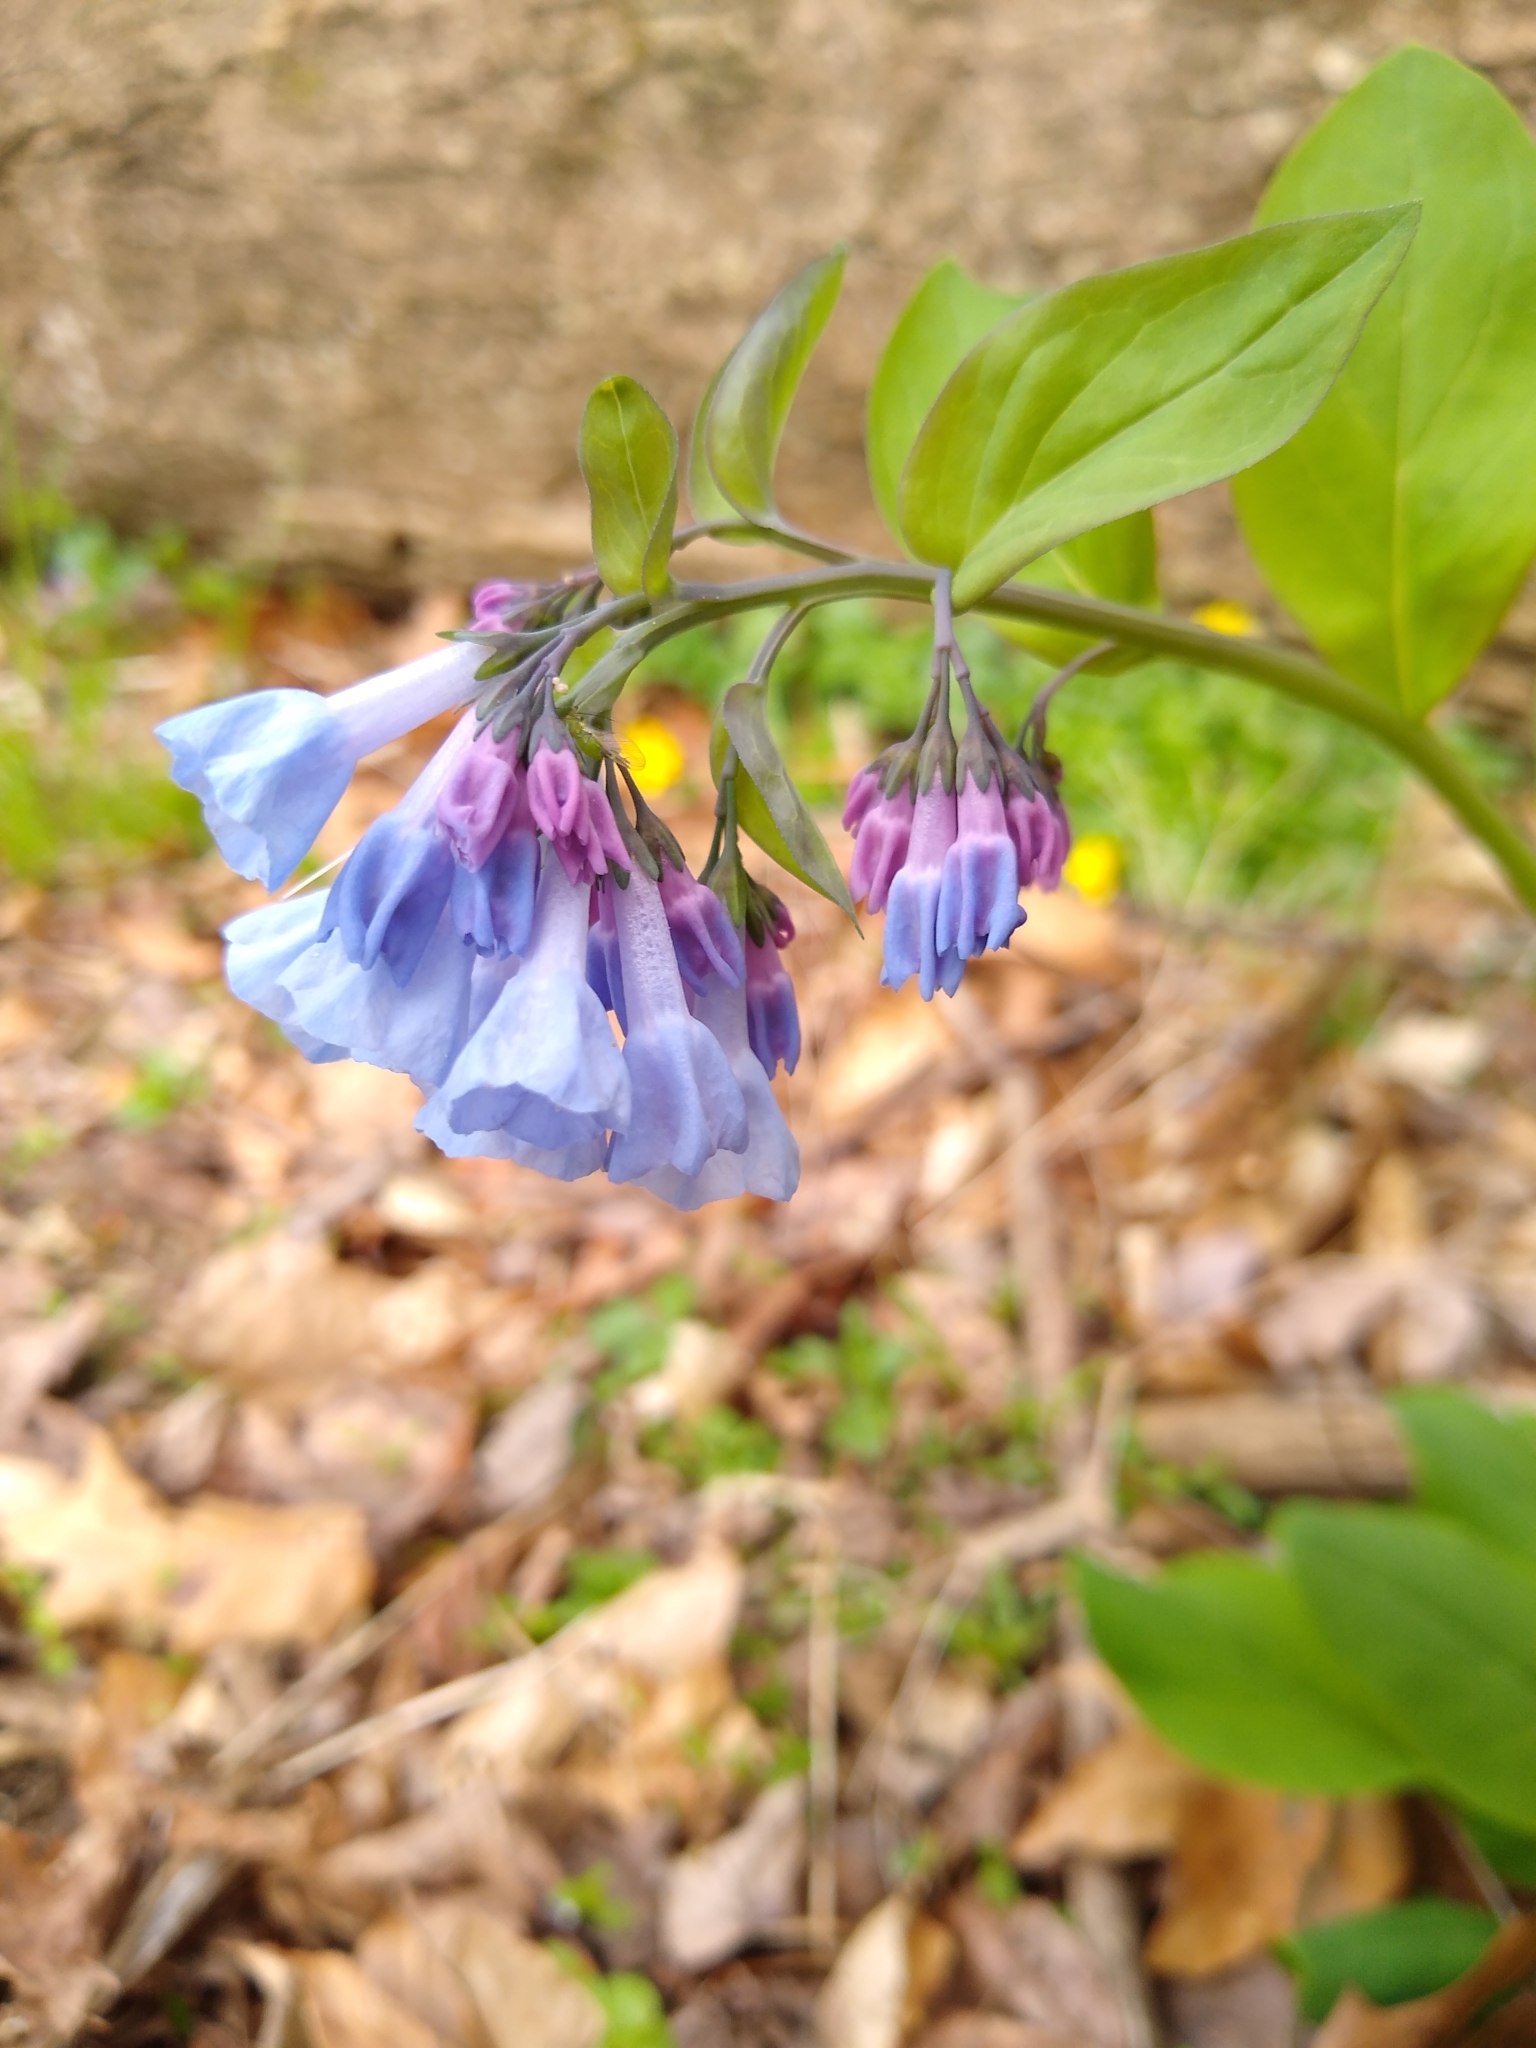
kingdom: Plantae
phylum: Tracheophyta
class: Magnoliopsida
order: Boraginales
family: Boraginaceae
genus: Mertensia
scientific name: Mertensia virginica
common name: Virginia bluebells
